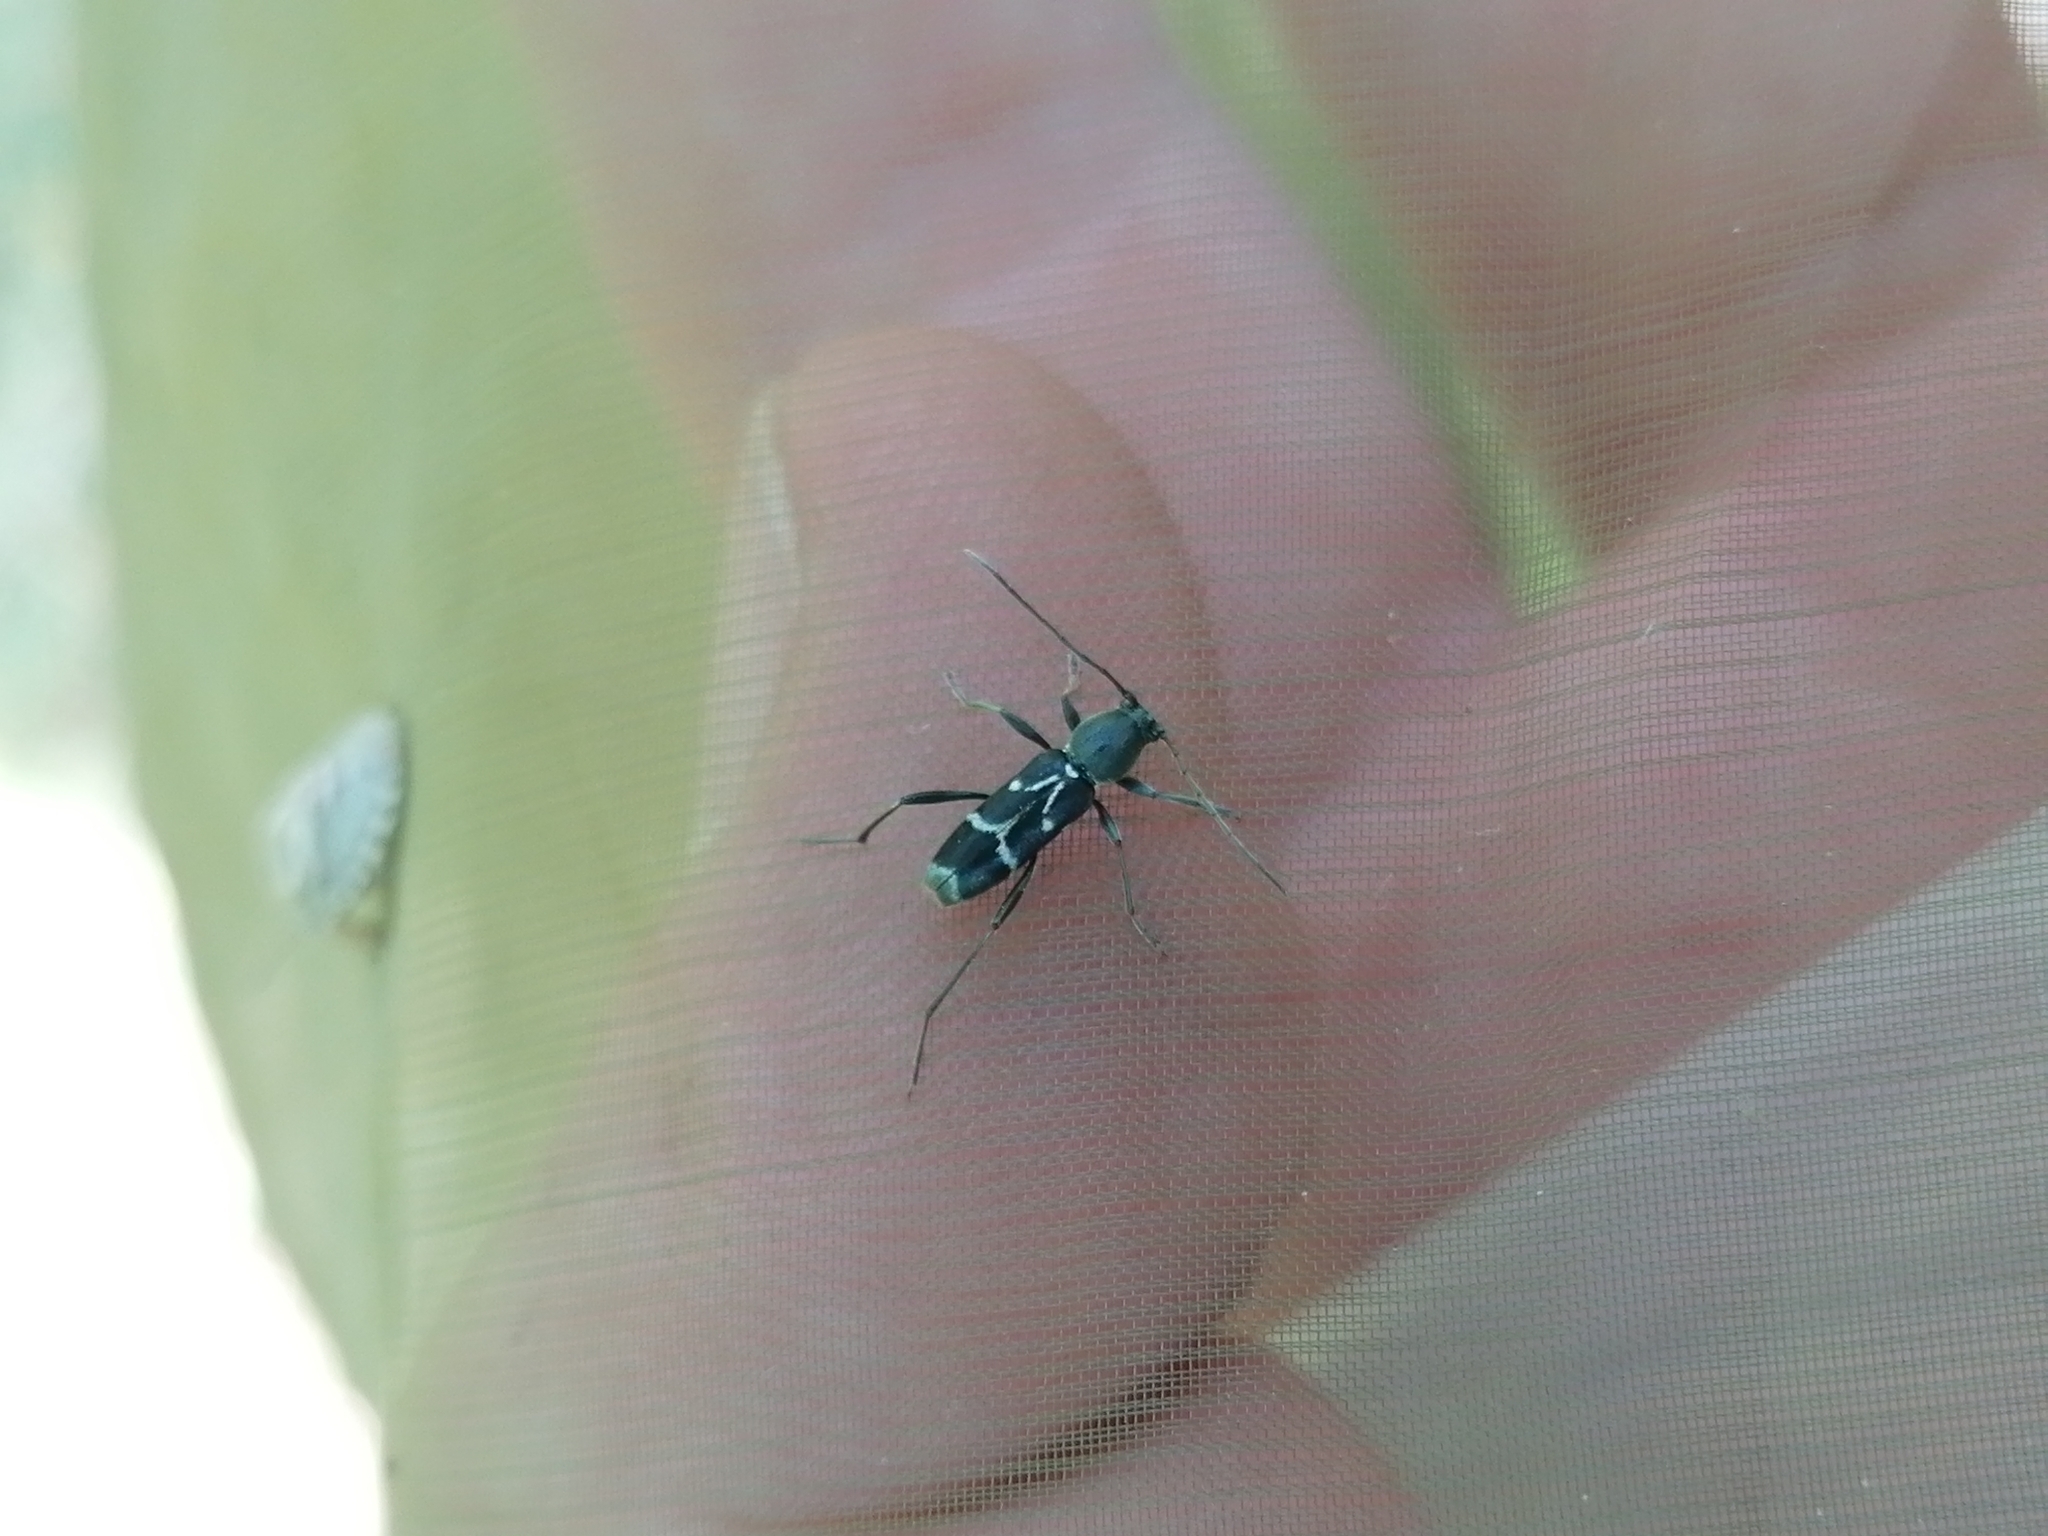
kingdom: Animalia
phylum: Arthropoda
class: Insecta
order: Coleoptera
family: Cerambycidae
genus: Chlorophorus
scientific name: Chlorophorus sartor
